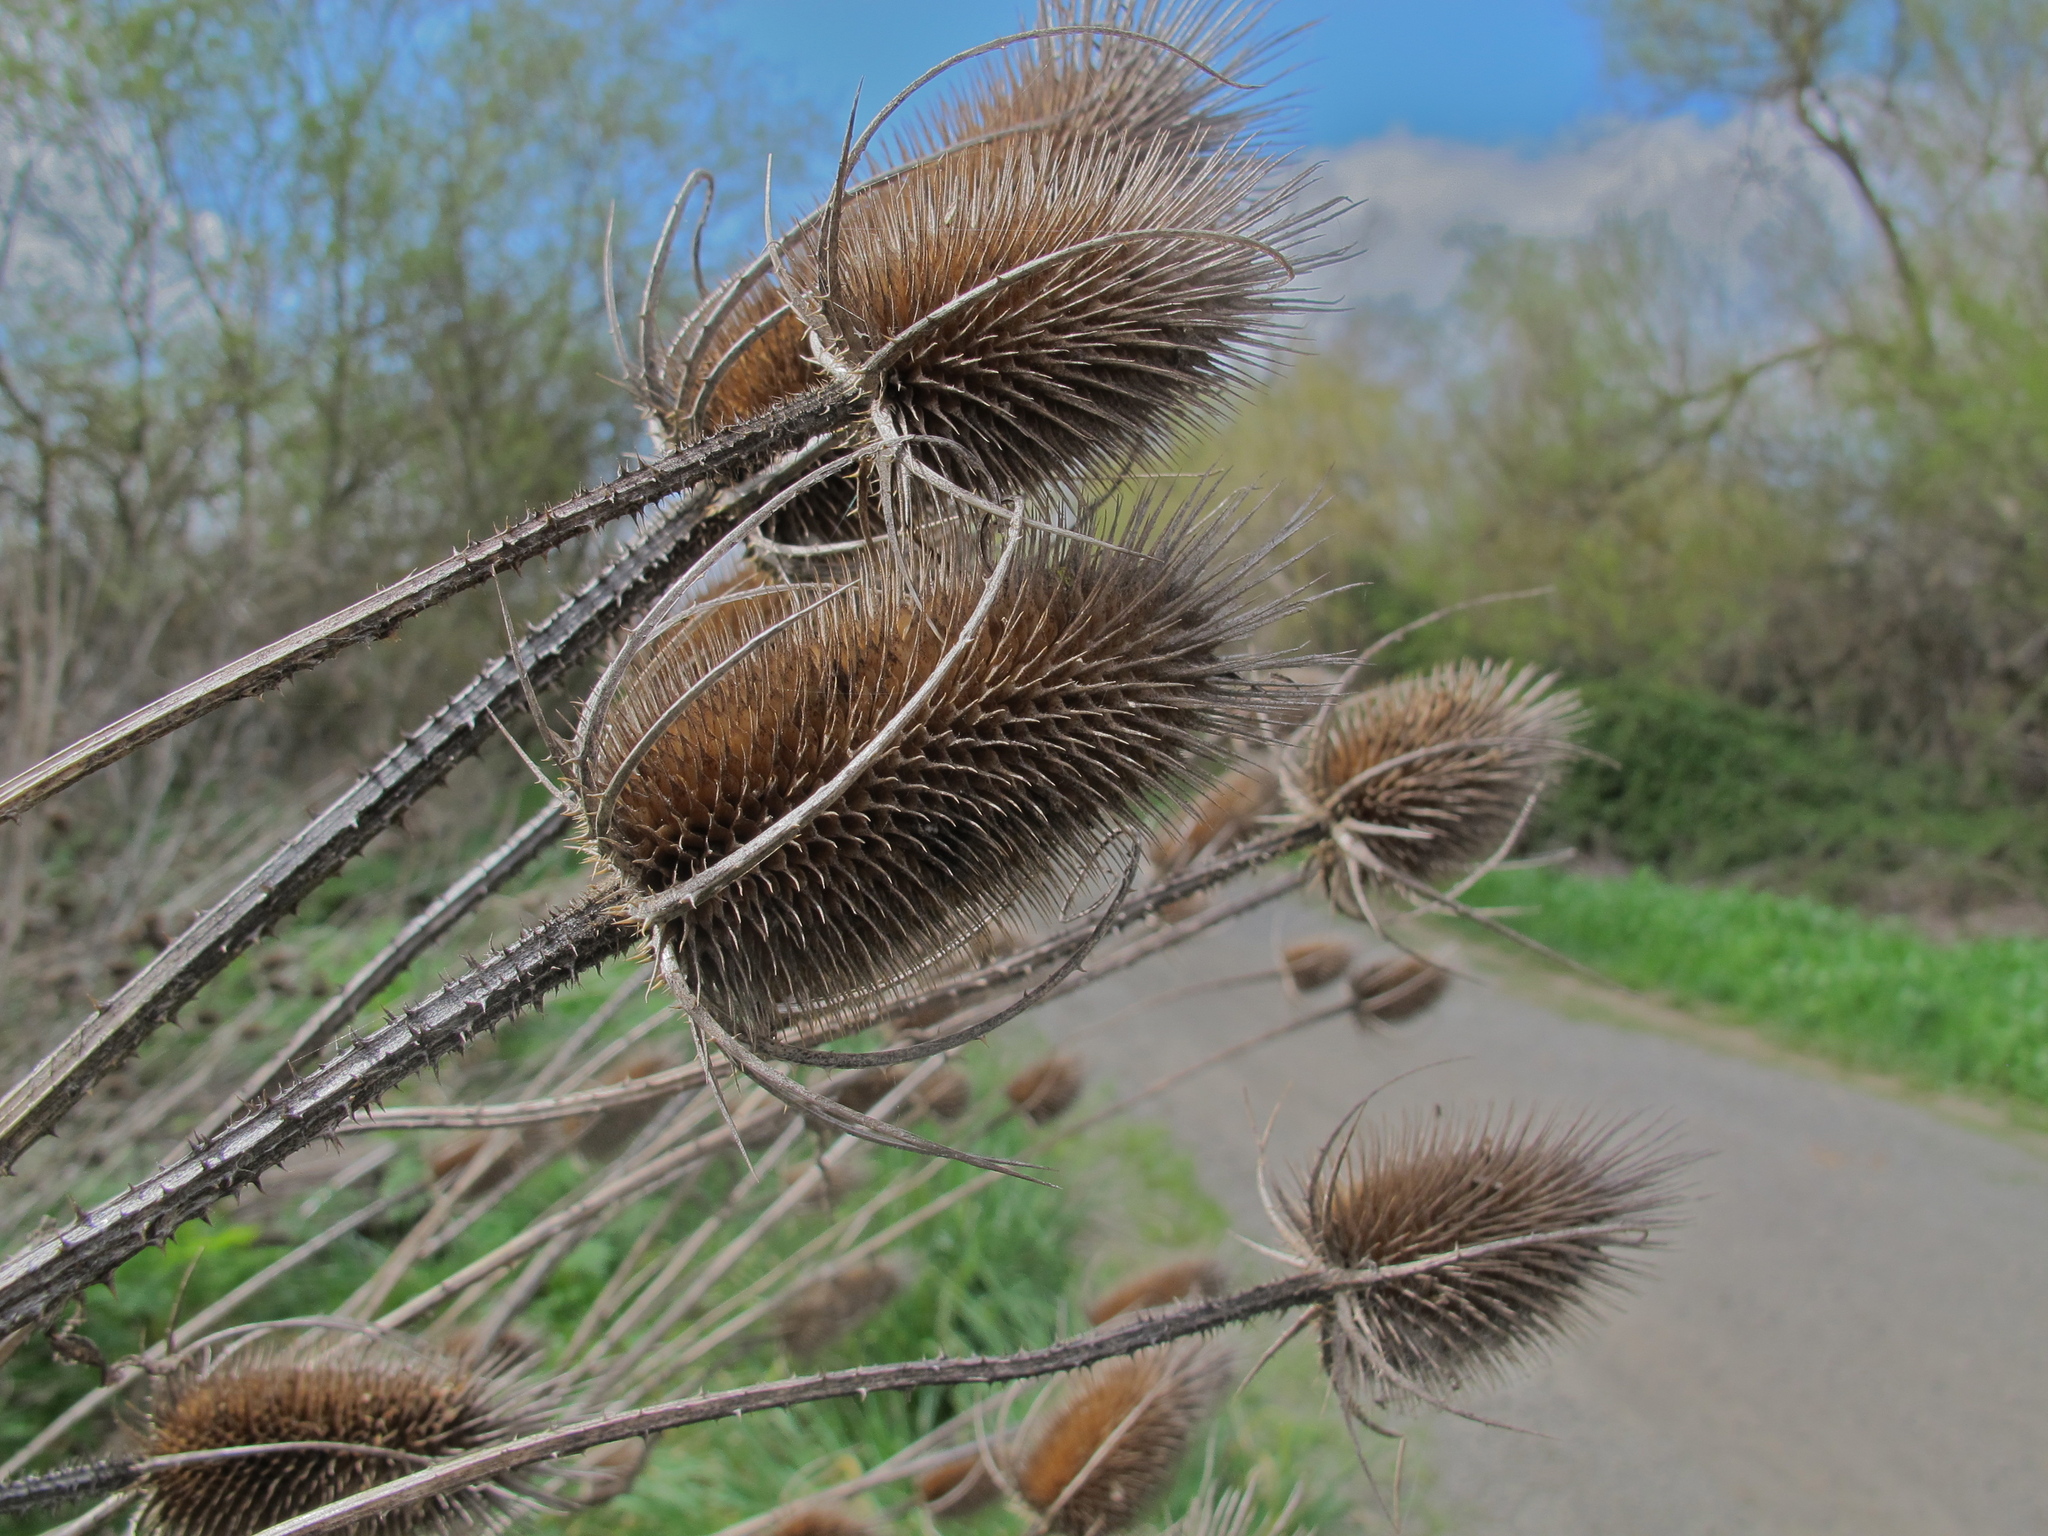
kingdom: Plantae
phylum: Tracheophyta
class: Magnoliopsida
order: Dipsacales
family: Caprifoliaceae
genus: Dipsacus
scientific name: Dipsacus fullonum
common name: Teasel
